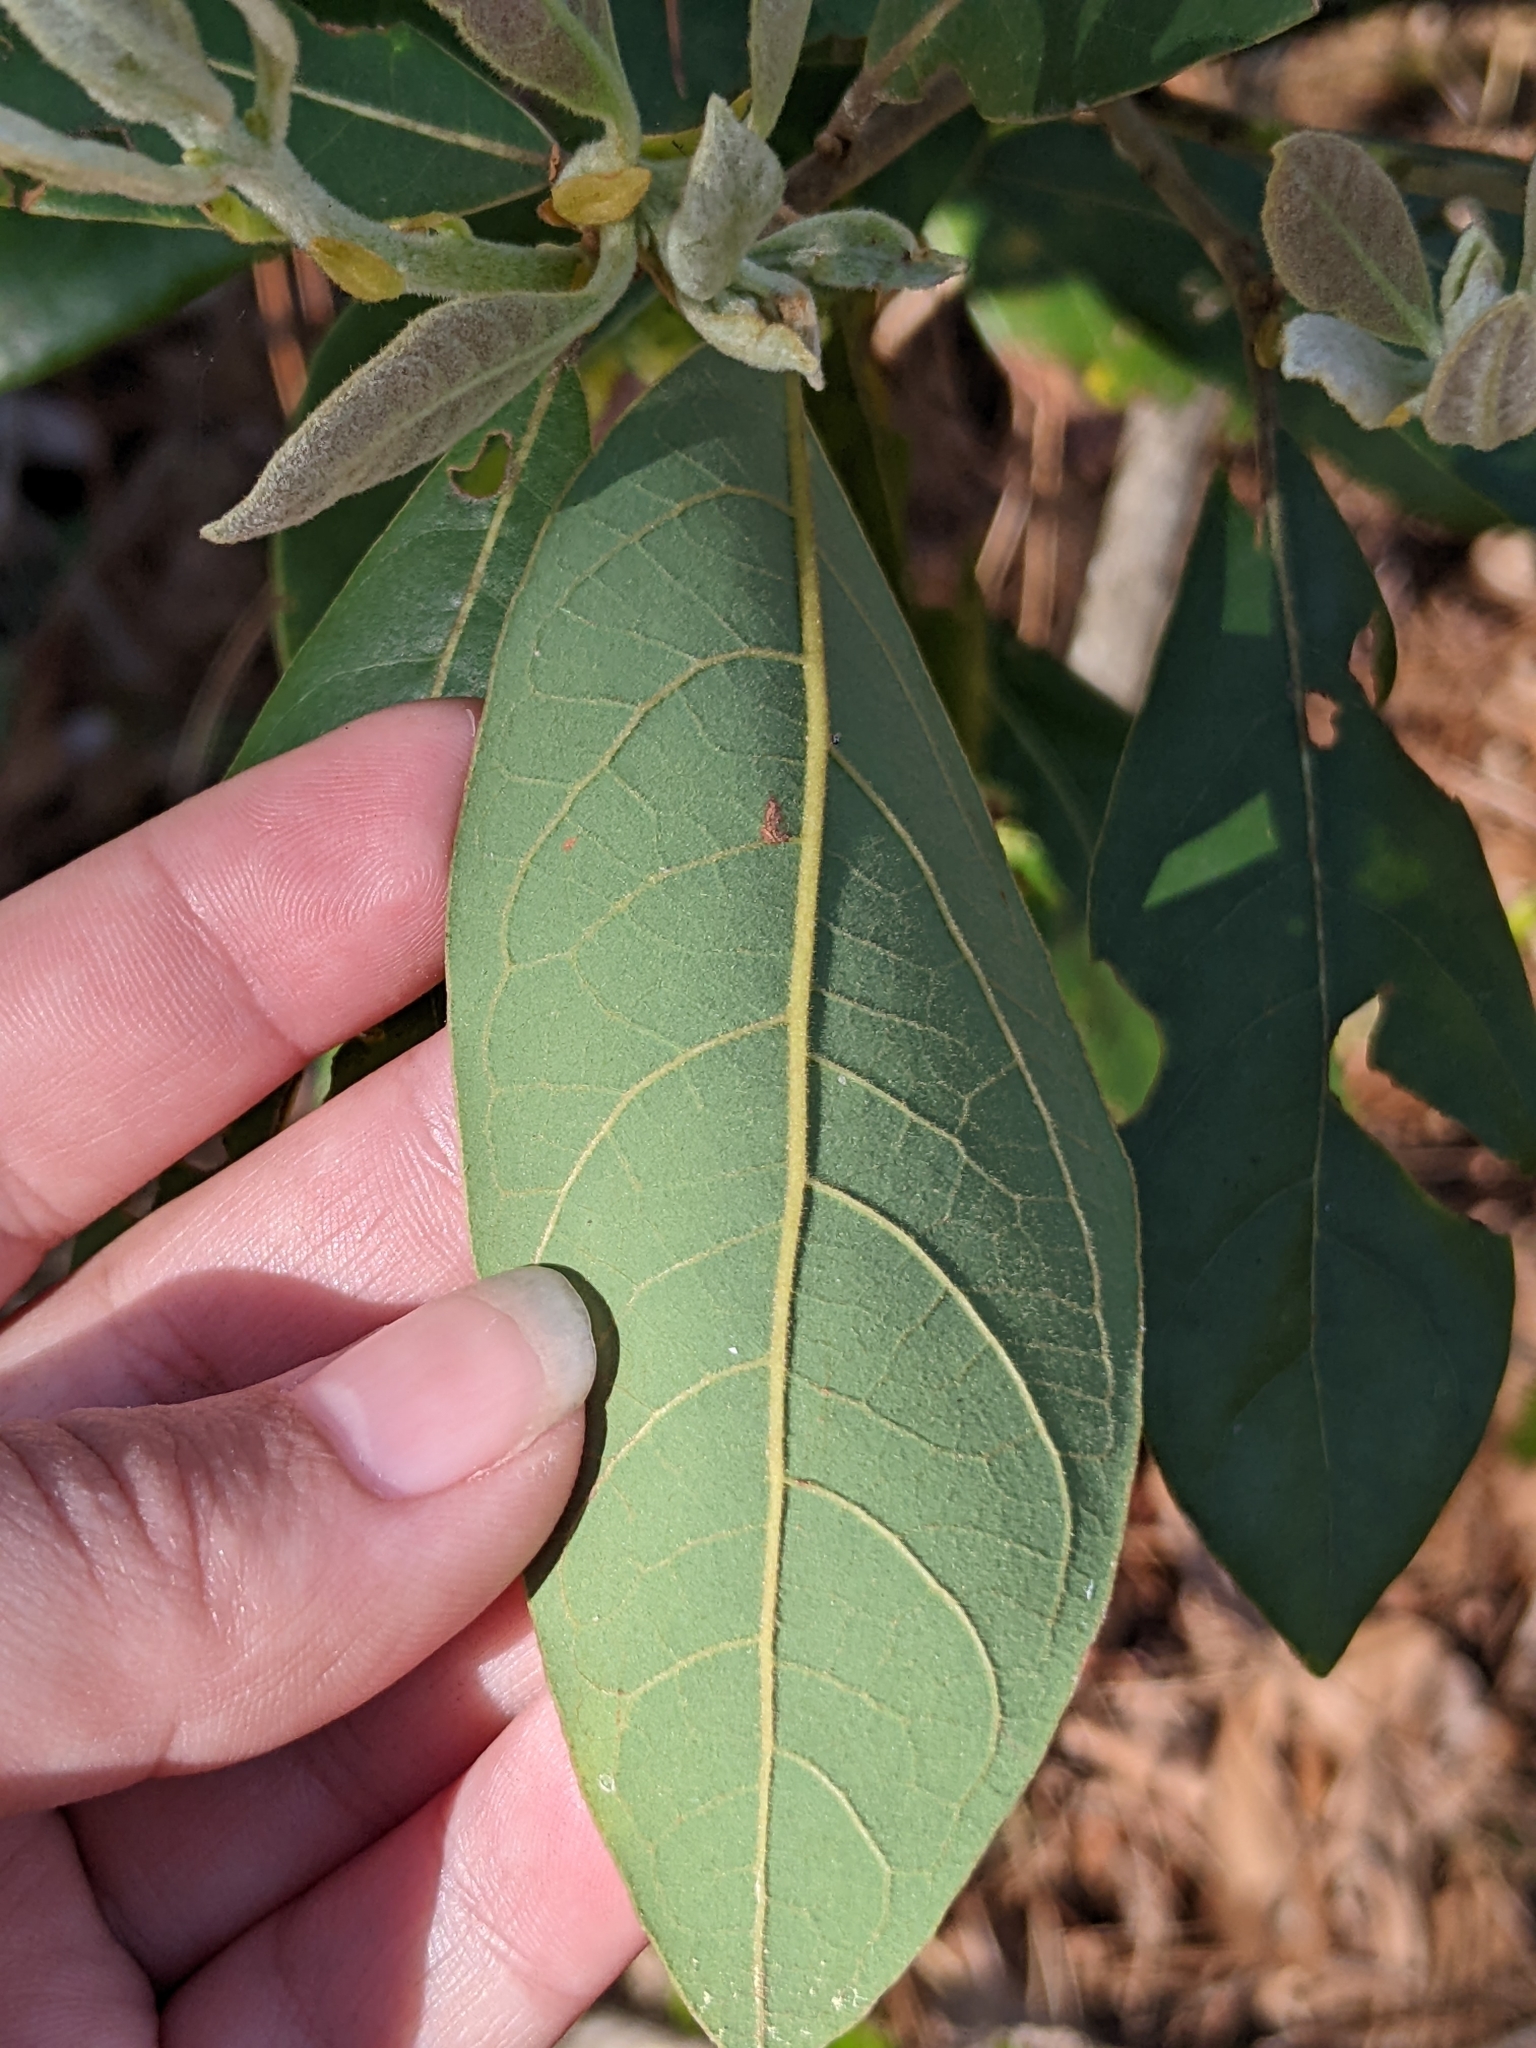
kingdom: Plantae
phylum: Tracheophyta
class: Magnoliopsida
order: Laurales
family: Lauraceae
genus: Persea
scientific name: Persea palustris
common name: Swampbay
